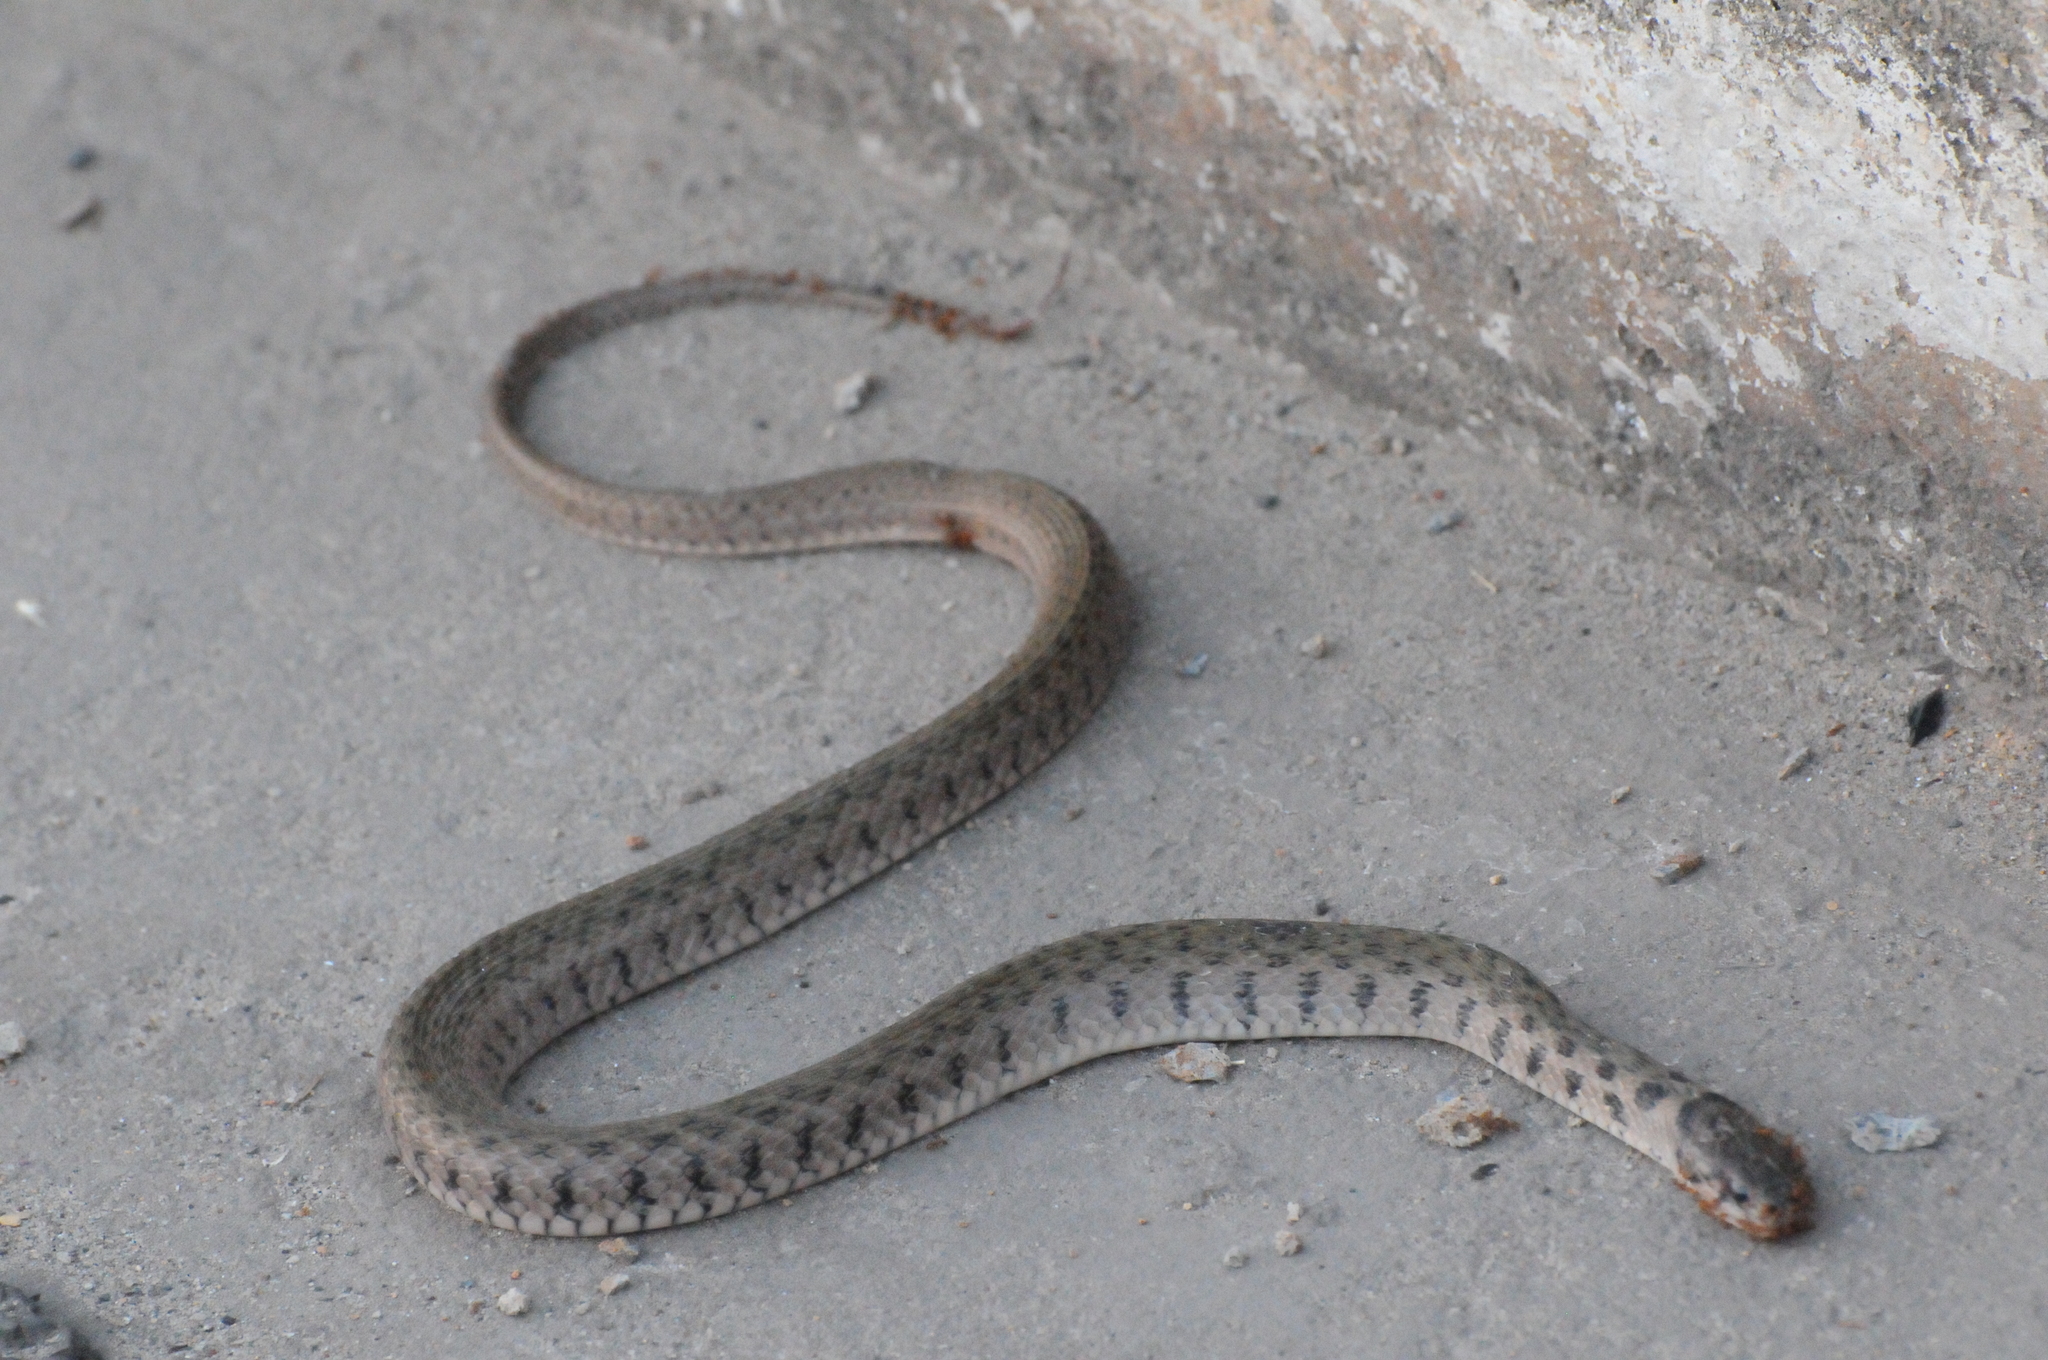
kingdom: Animalia
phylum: Chordata
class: Squamata
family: Colubridae
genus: Fowlea
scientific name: Fowlea flavipunctatus
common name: Yellow-spotted keelback
